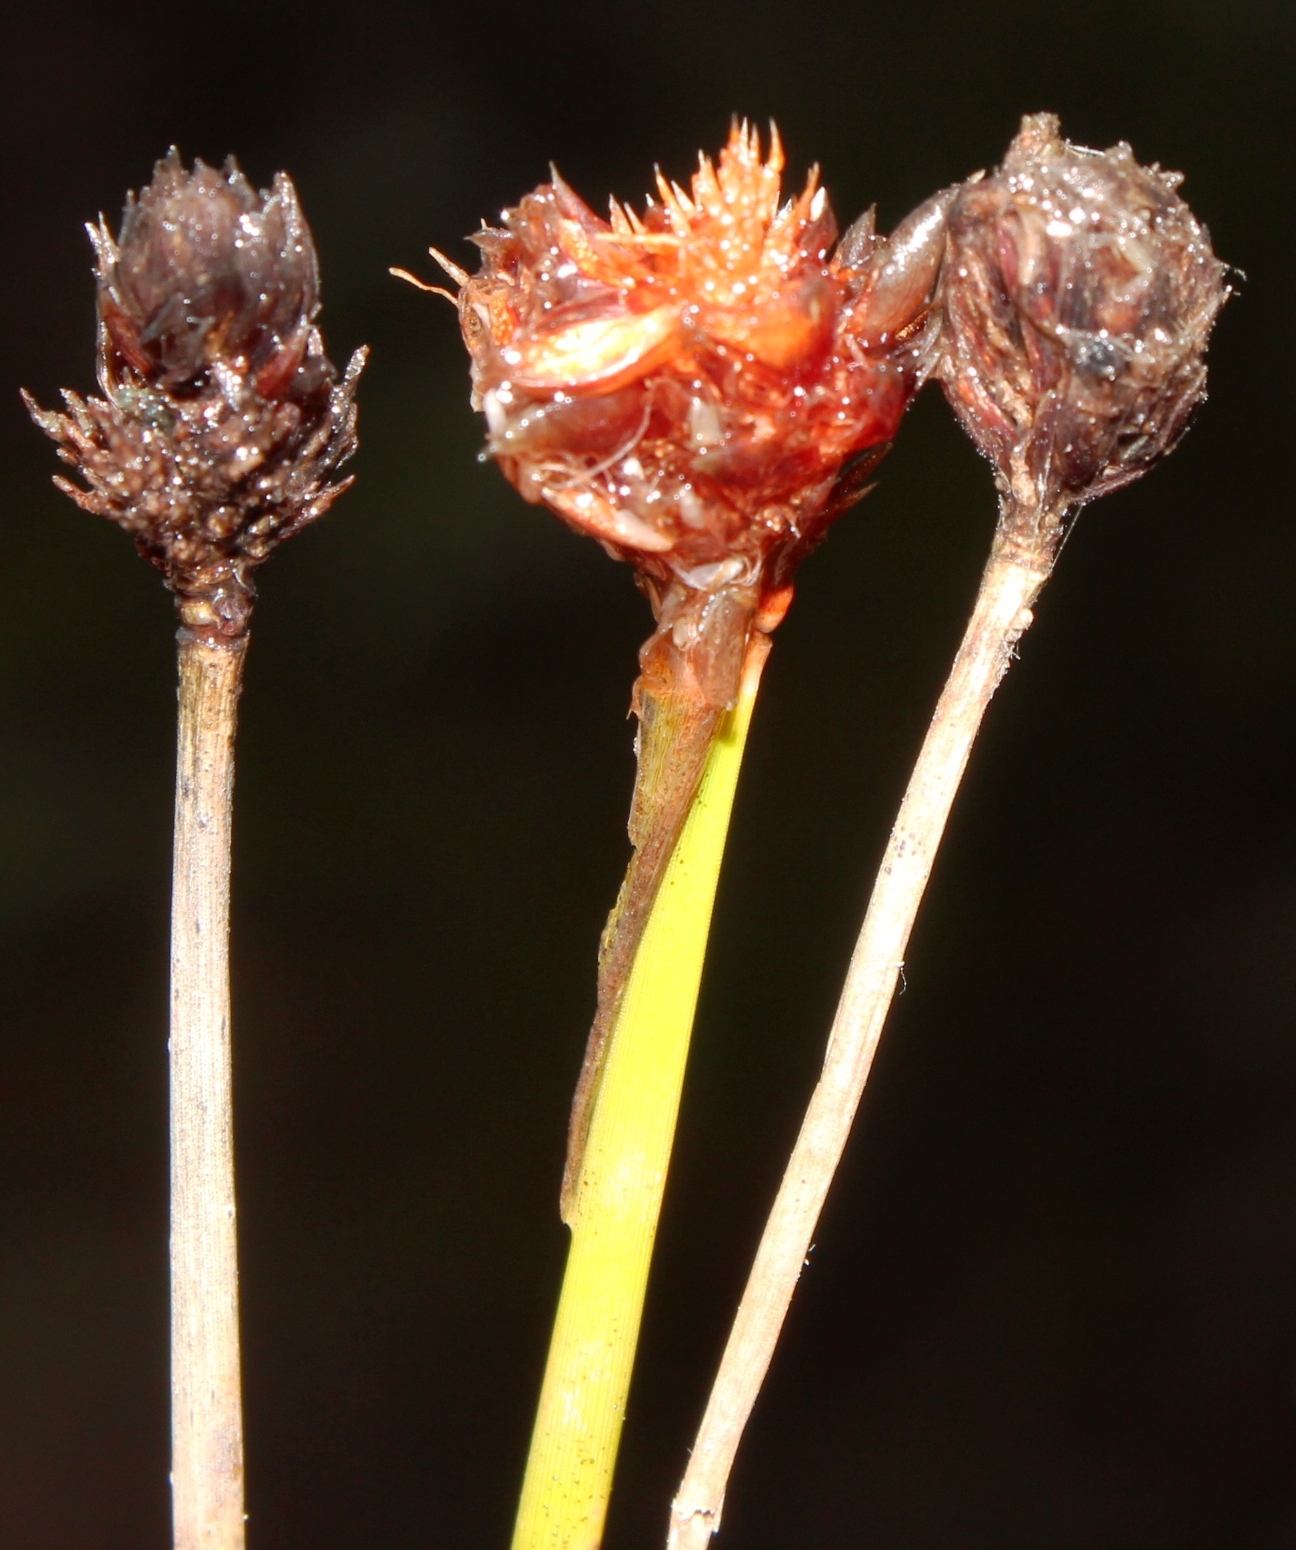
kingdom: Plantae
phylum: Tracheophyta
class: Liliopsida
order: Poales
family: Cyperaceae
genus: Ficinia
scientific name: Ficinia brevifolia
